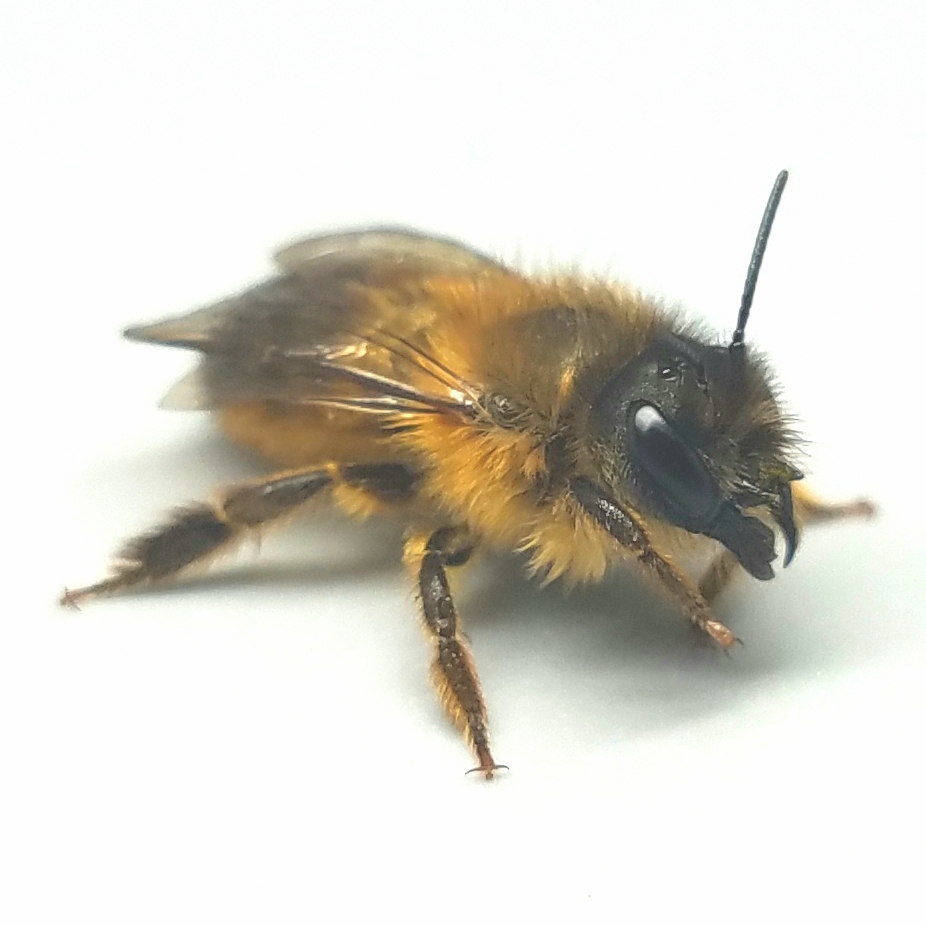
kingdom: Animalia
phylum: Arthropoda
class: Insecta
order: Hymenoptera
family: Megachilidae
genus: Osmia
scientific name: Osmia taurus
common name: Taurus mason bee
